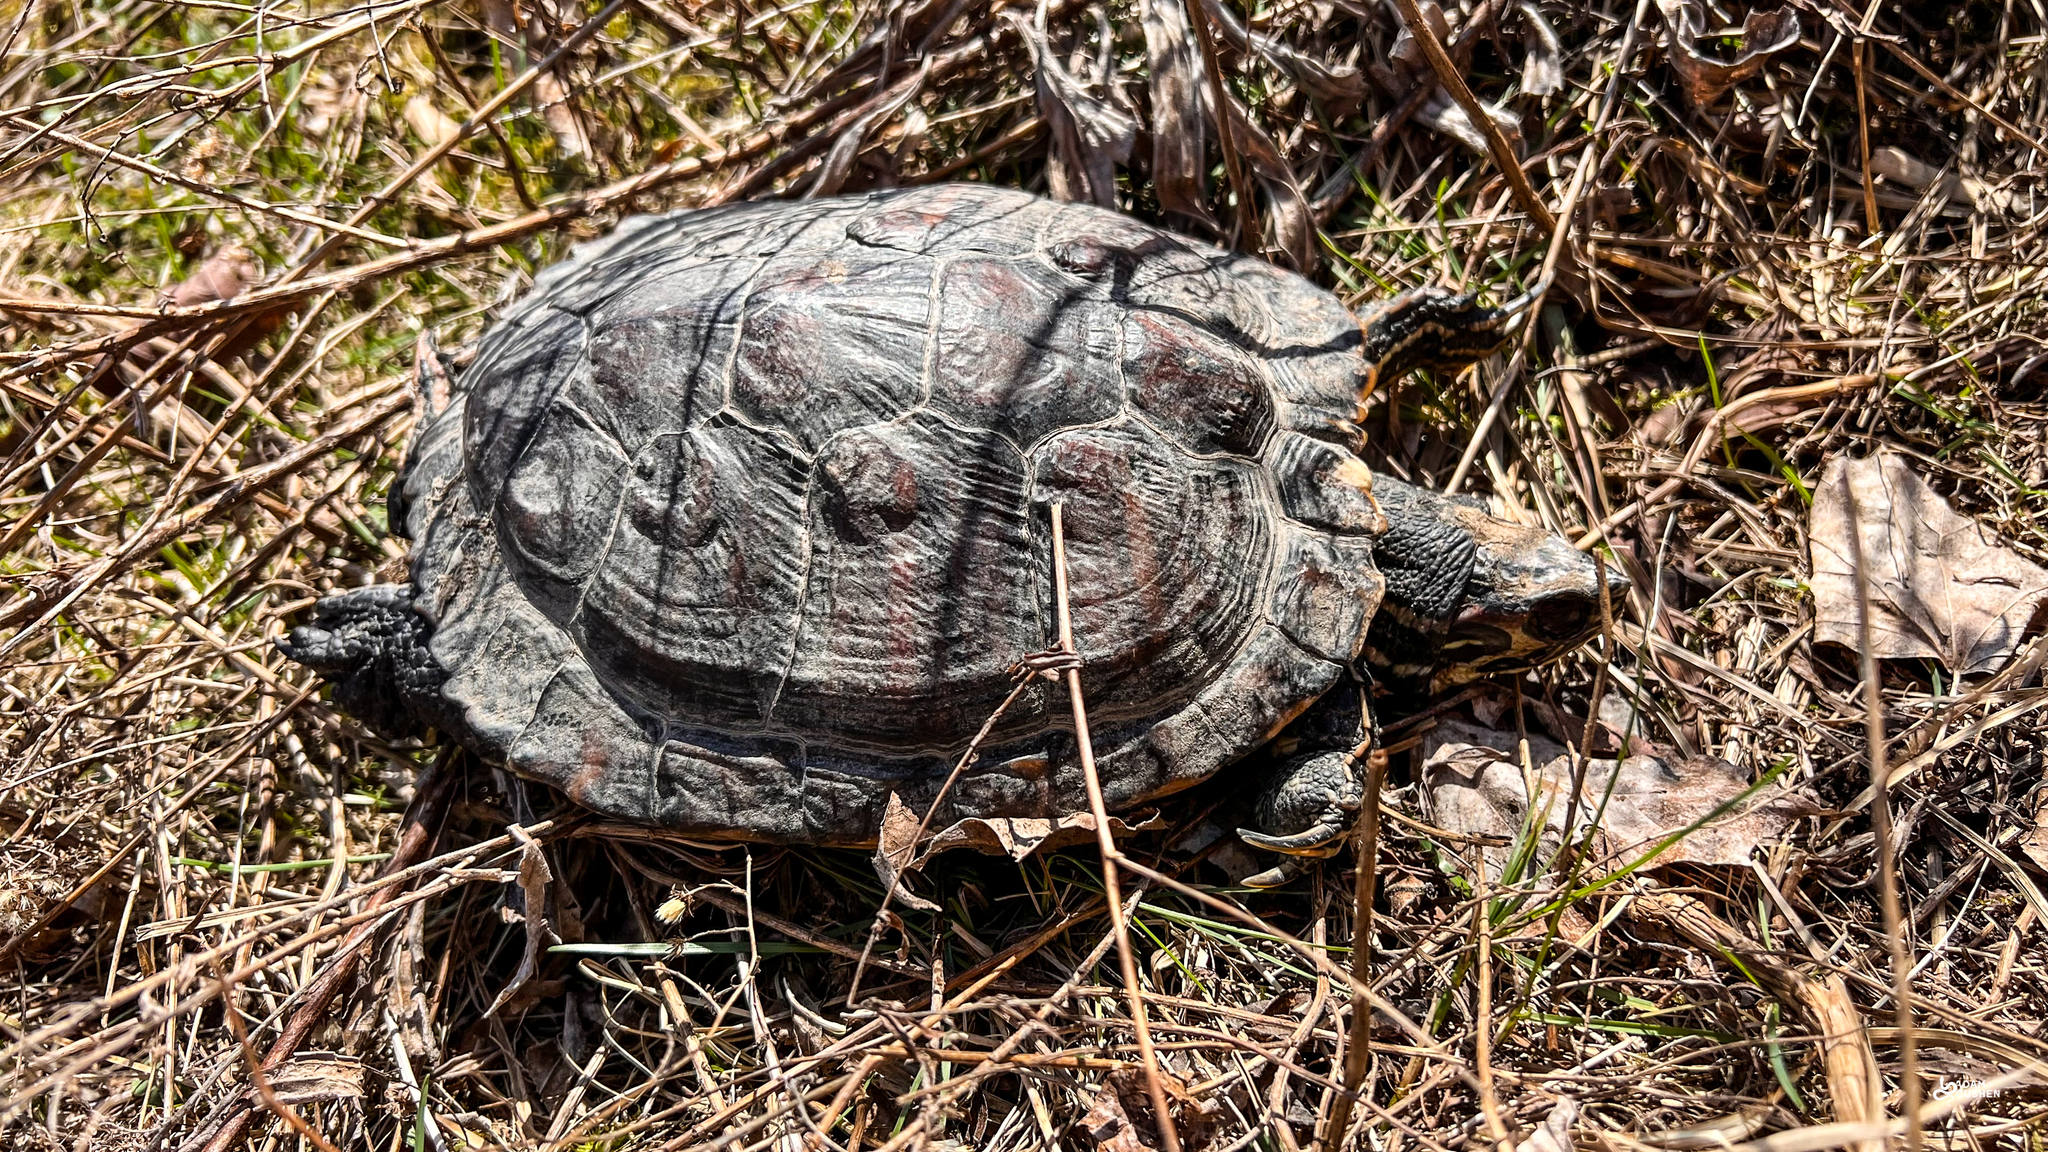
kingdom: Animalia
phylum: Chordata
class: Testudines
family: Emydidae
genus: Trachemys
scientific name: Trachemys scripta
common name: Slider
